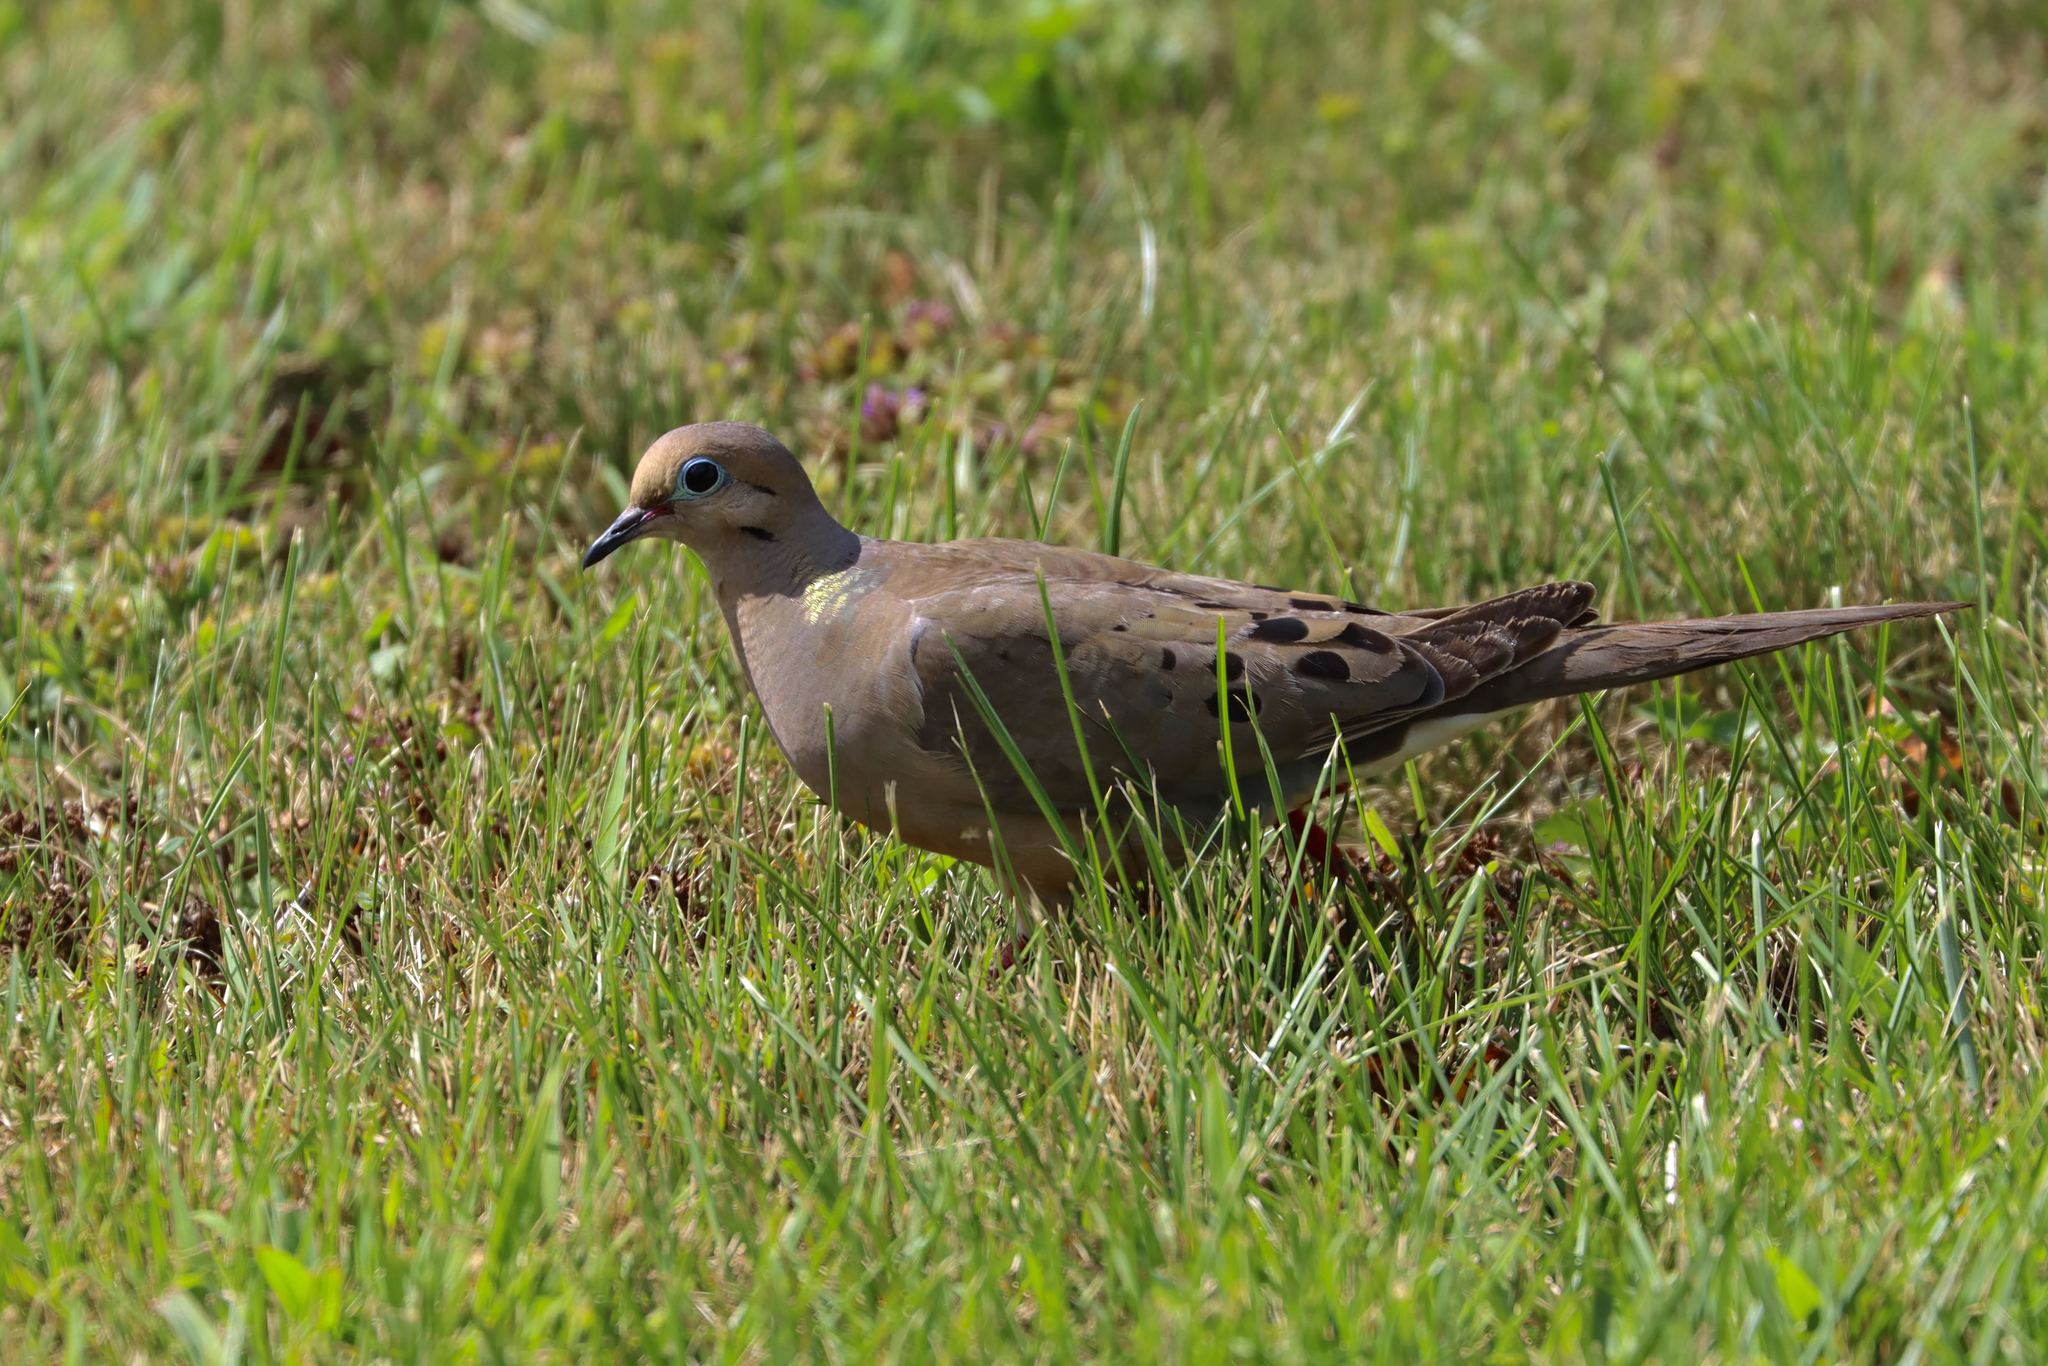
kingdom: Animalia
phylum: Chordata
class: Aves
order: Columbiformes
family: Columbidae
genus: Zenaida
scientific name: Zenaida macroura
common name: Mourning dove
